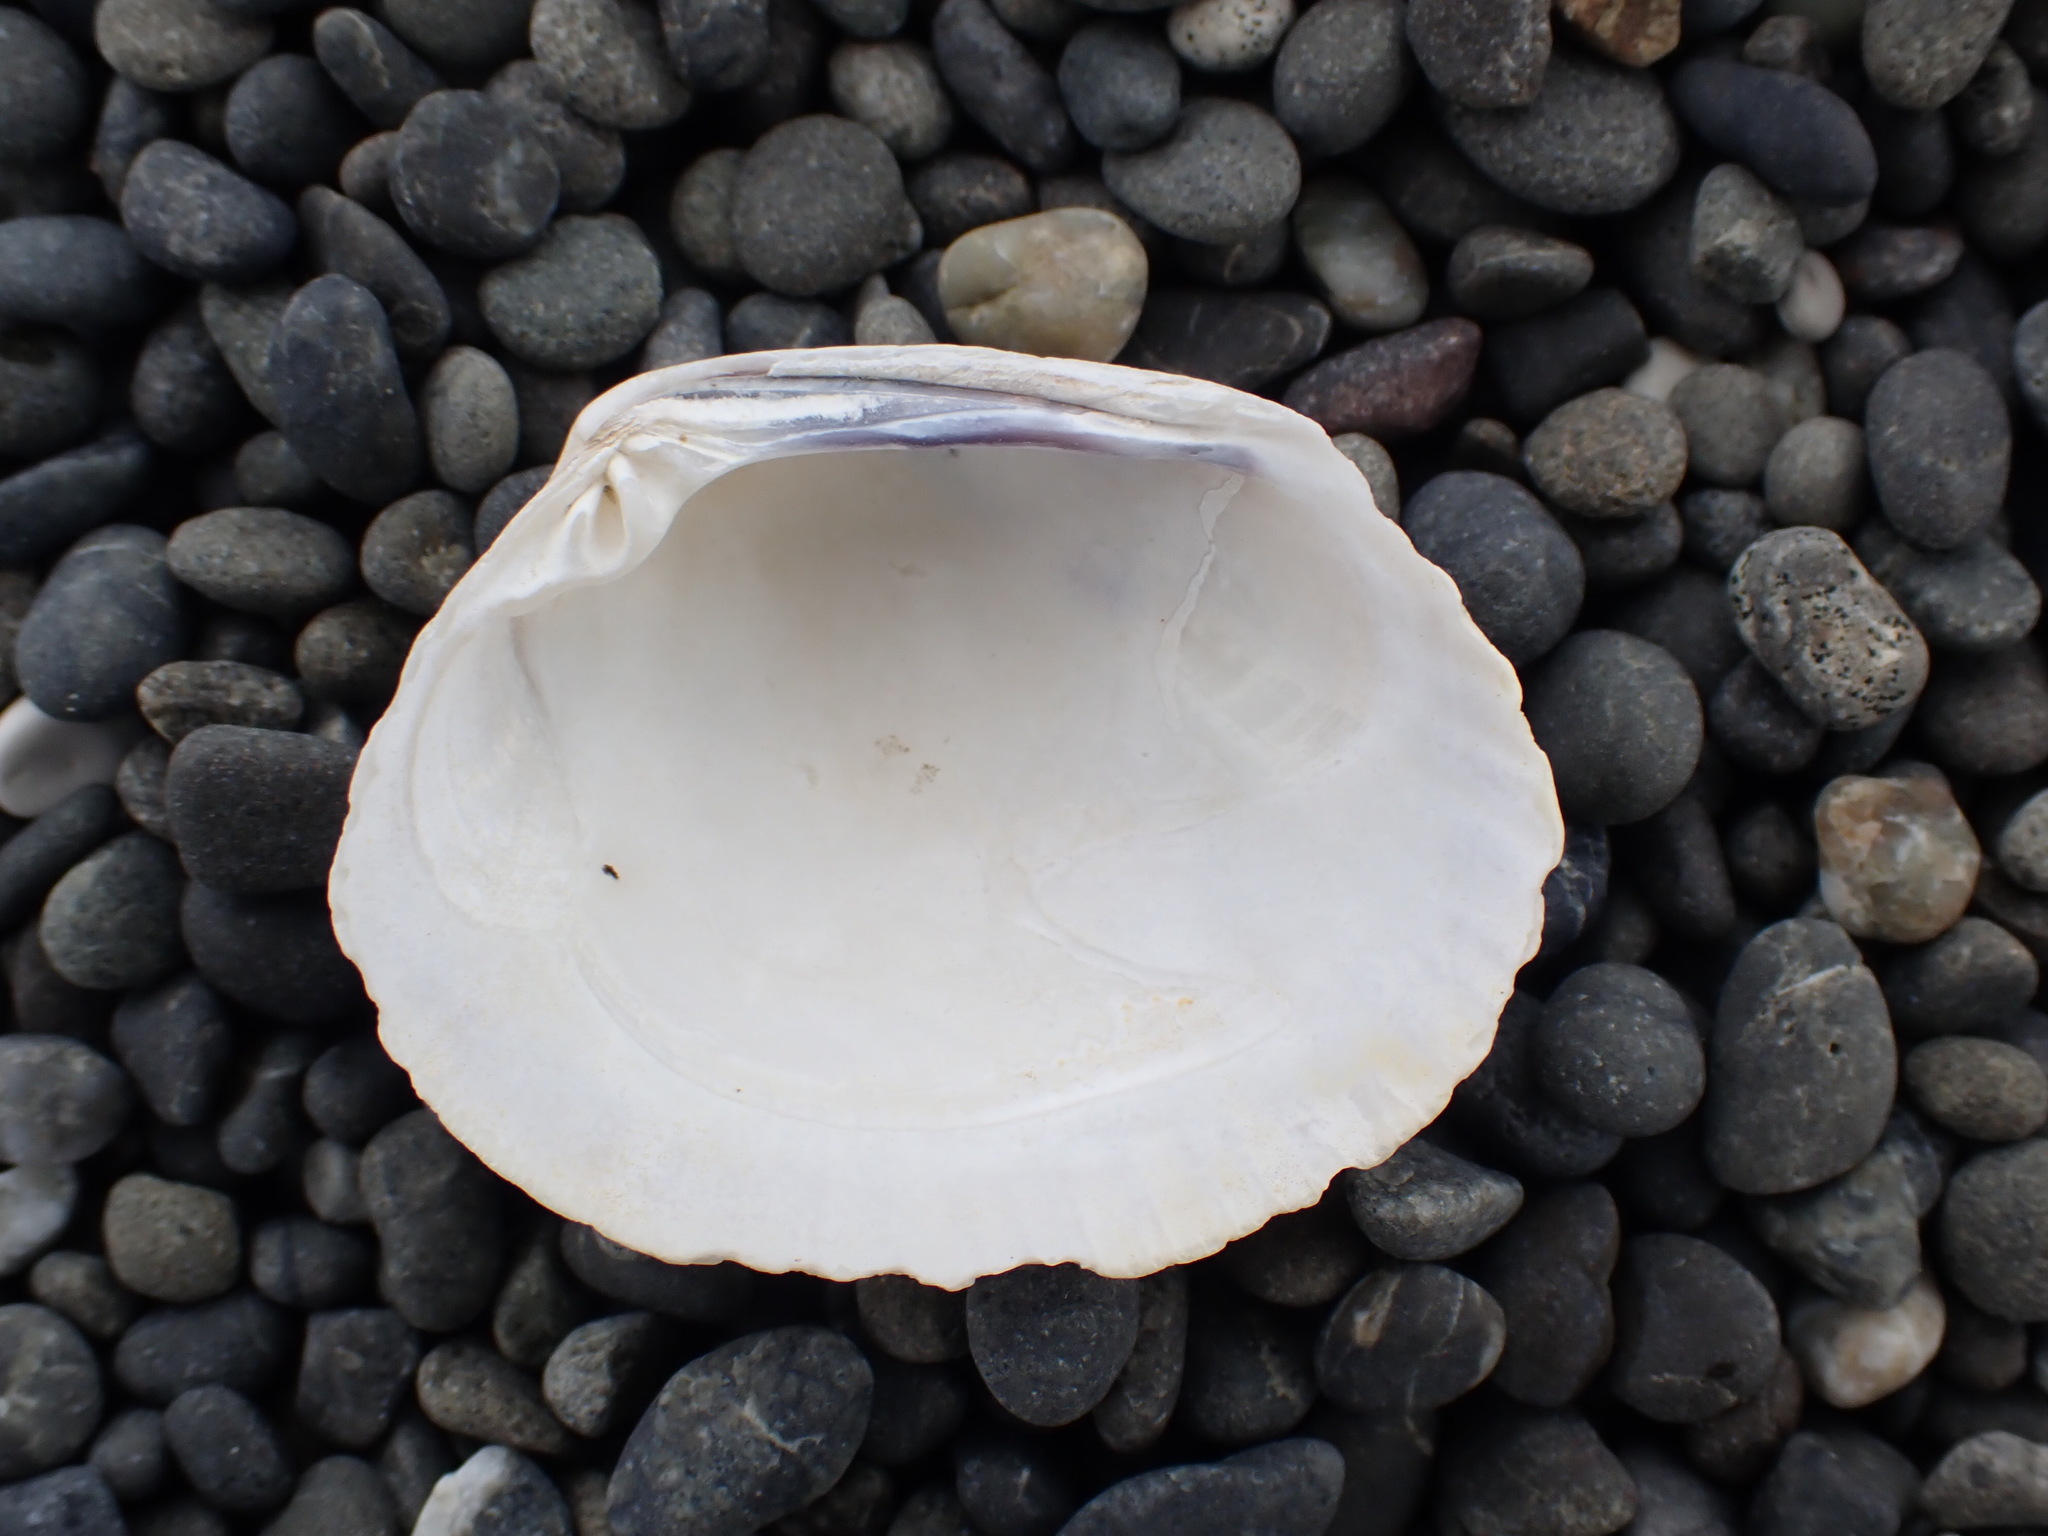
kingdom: Animalia
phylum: Mollusca
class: Bivalvia
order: Venerida
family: Veneridae
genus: Leukoma
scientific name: Leukoma crassicosta
